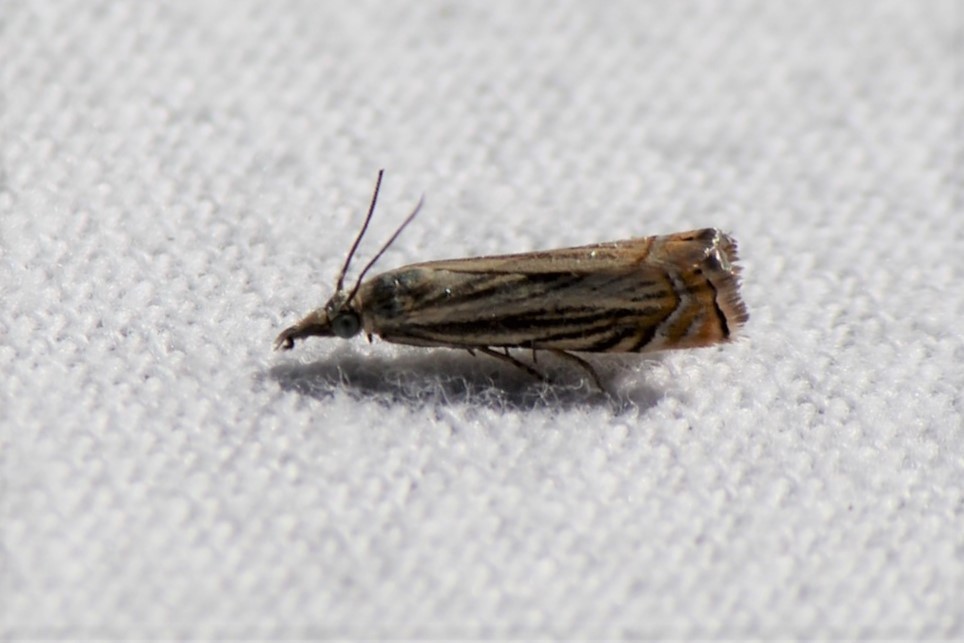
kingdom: Animalia
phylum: Arthropoda
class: Insecta
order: Lepidoptera
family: Crambidae
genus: Chrysoteuchia
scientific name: Chrysoteuchia topiarius
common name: Topiary grass-veneer
